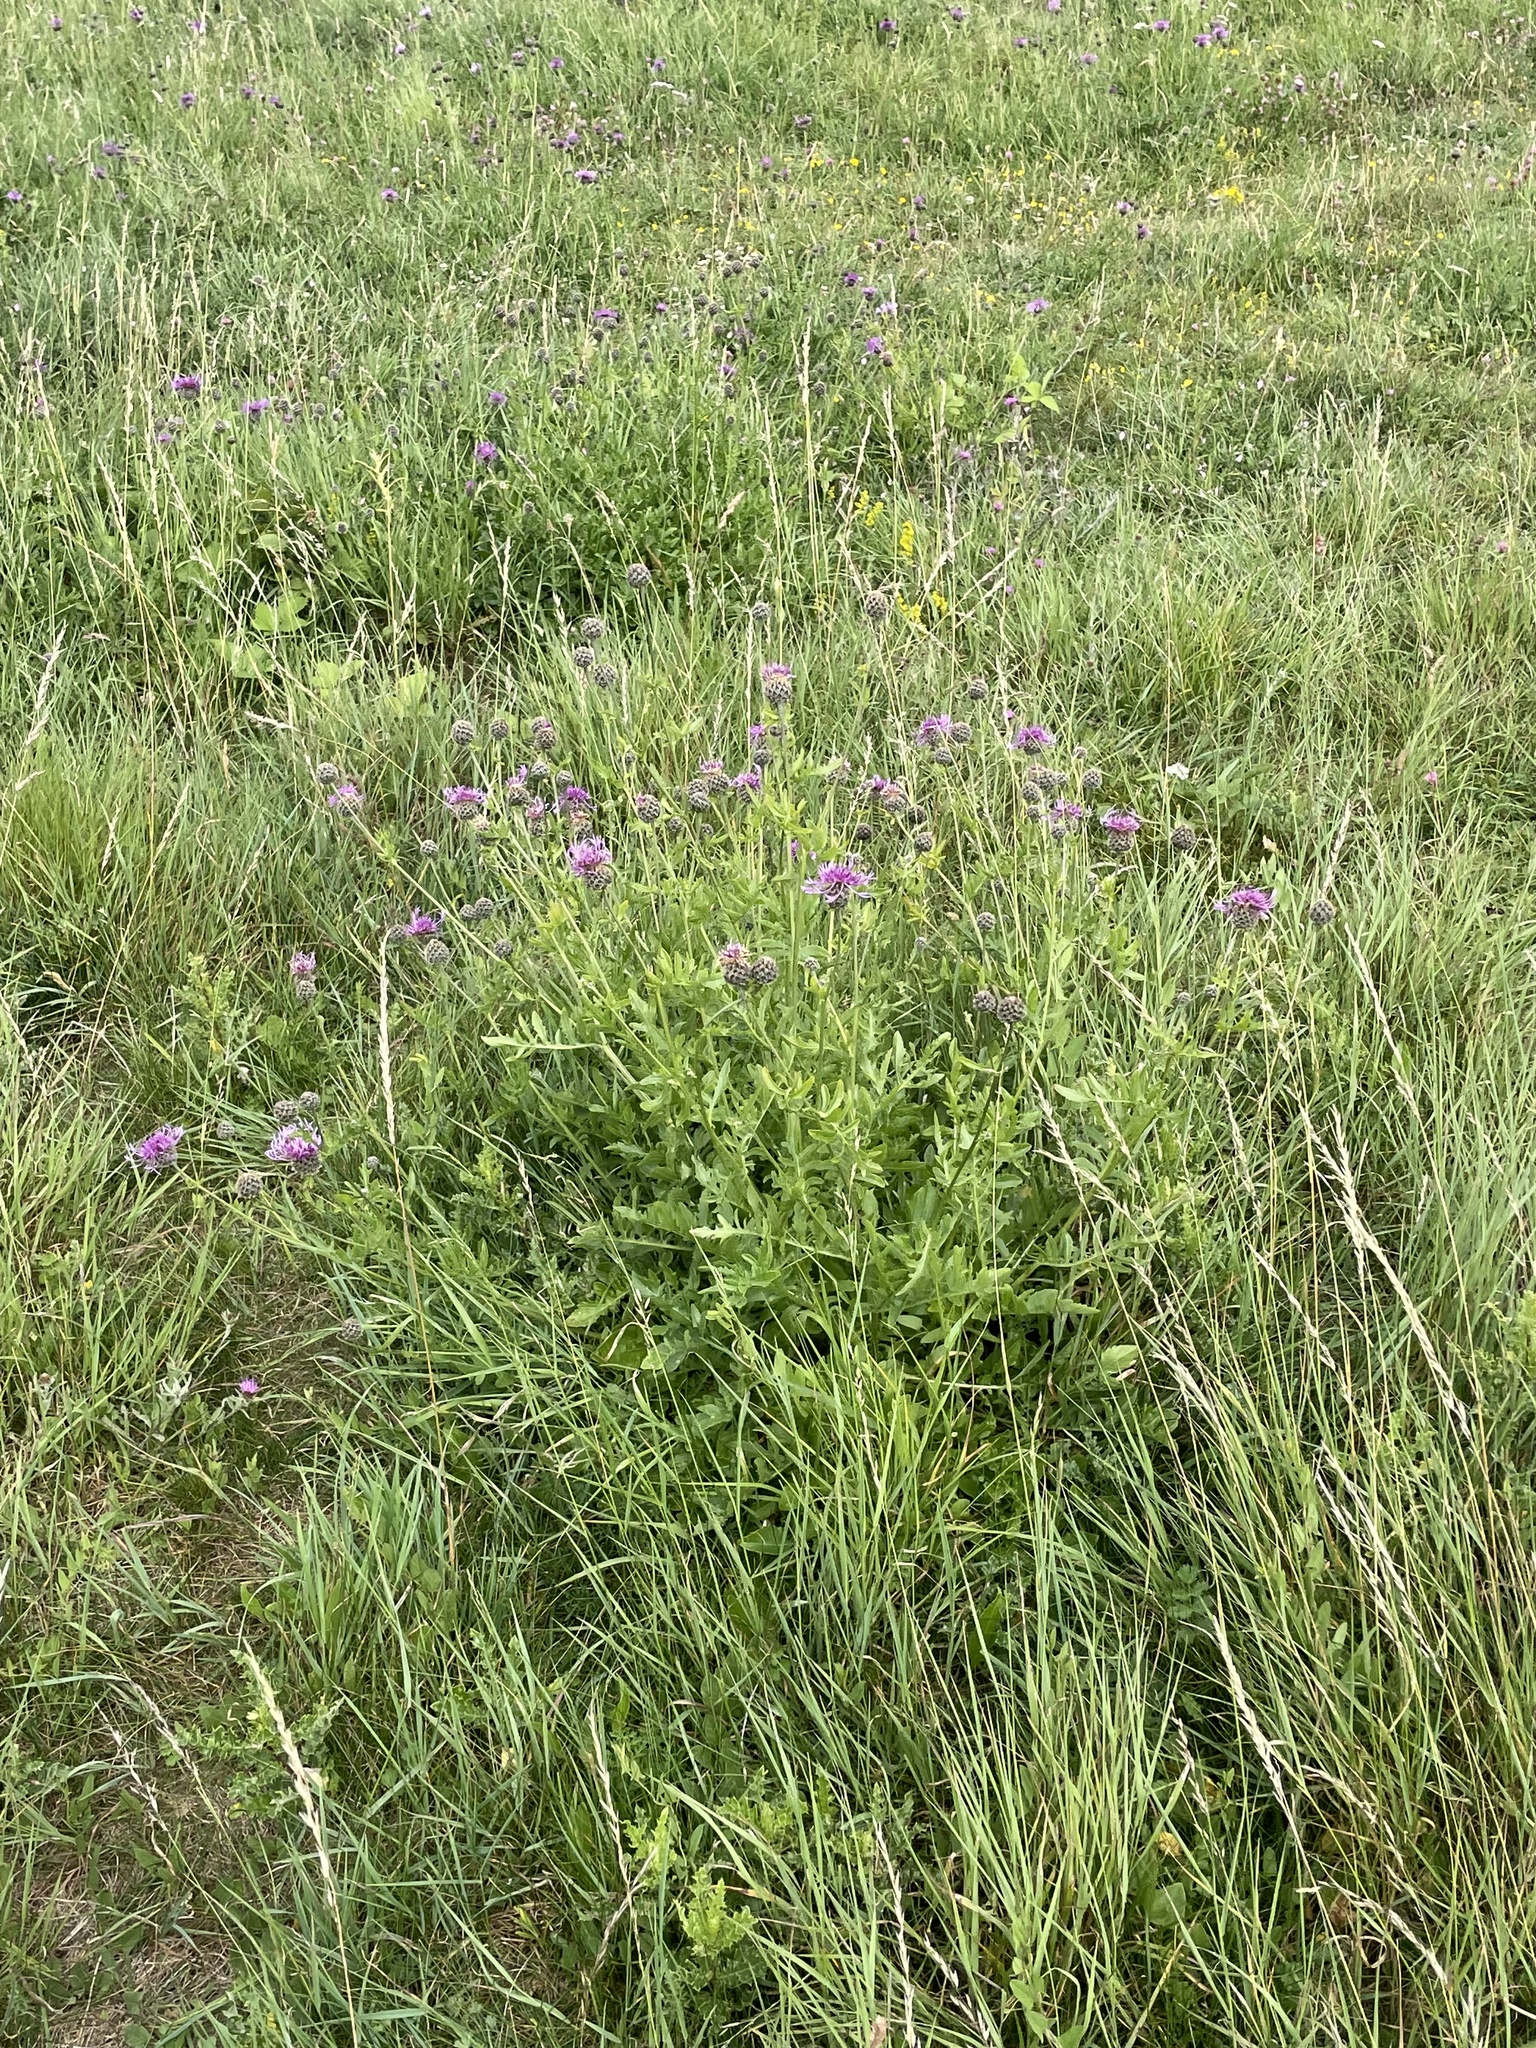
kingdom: Plantae
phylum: Tracheophyta
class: Magnoliopsida
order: Asterales
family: Asteraceae
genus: Centaurea
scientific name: Centaurea scabiosa
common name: Greater knapweed
